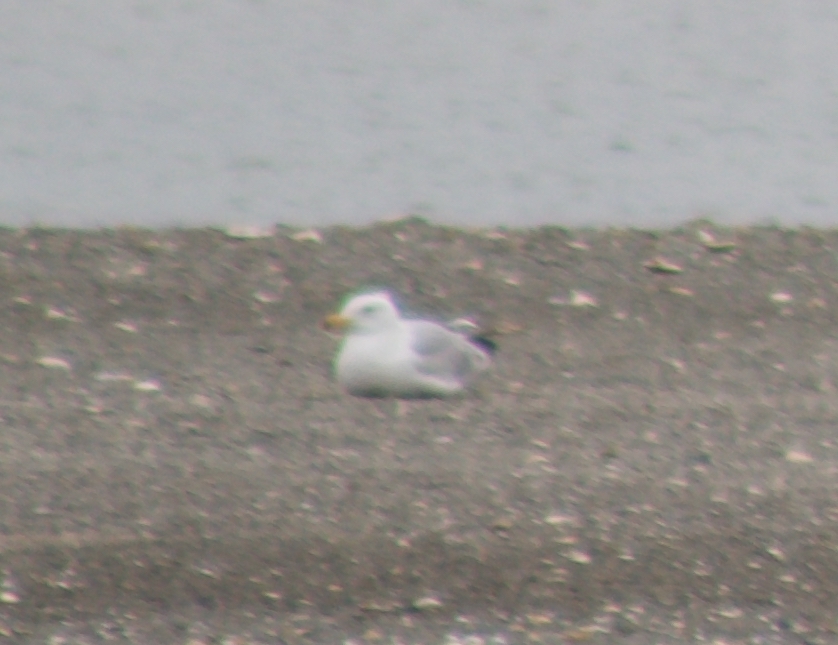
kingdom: Animalia
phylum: Chordata
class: Aves
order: Charadriiformes
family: Laridae
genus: Larus
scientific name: Larus argentatus
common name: Herring gull
